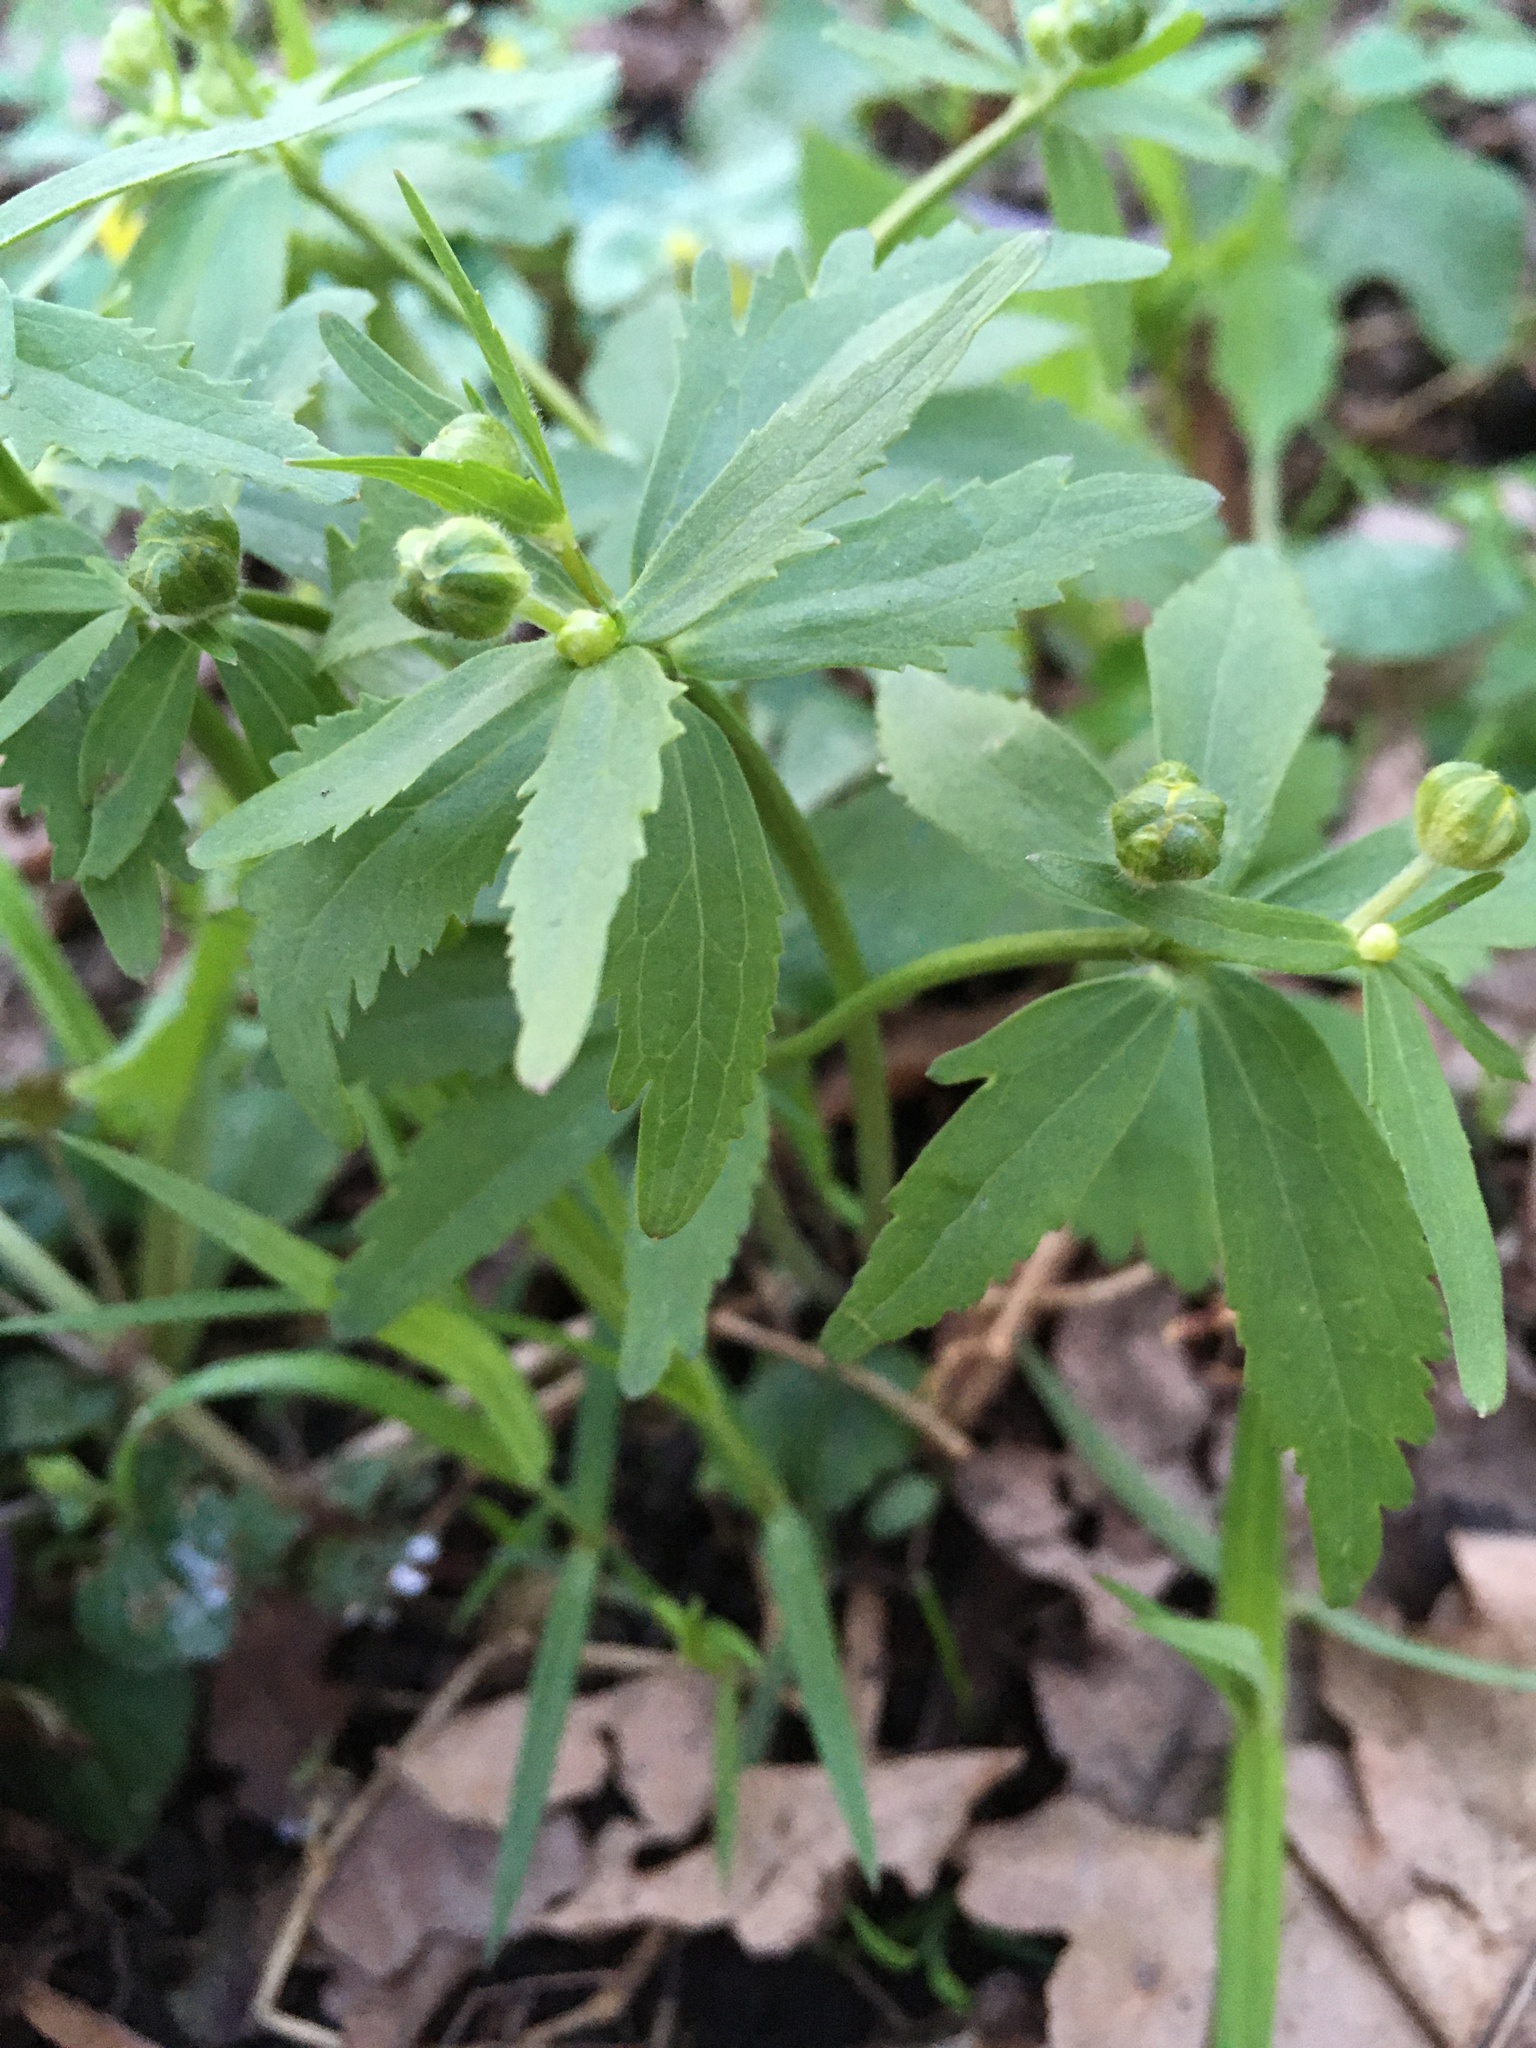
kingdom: Plantae
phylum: Tracheophyta
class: Magnoliopsida
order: Ranunculales
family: Ranunculaceae
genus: Ranunculus
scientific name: Ranunculus cassubicus
